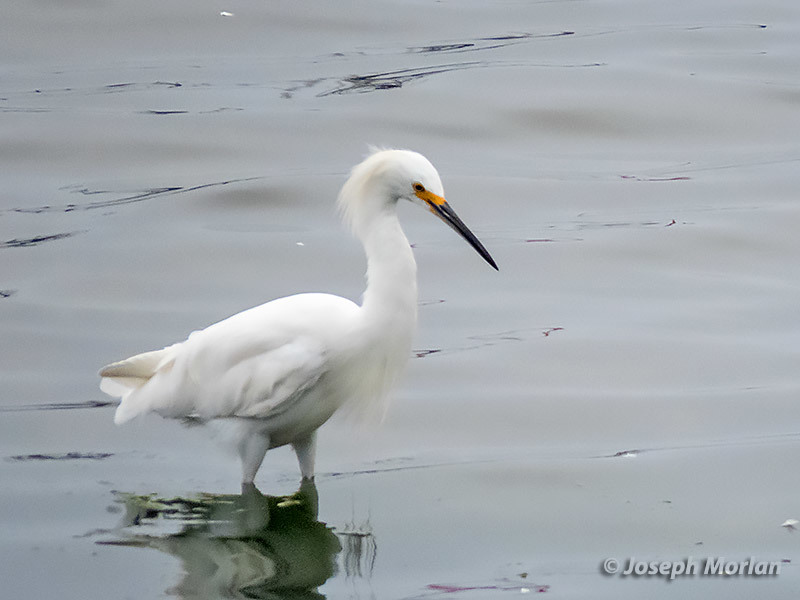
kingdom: Animalia
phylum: Chordata
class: Aves
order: Pelecaniformes
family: Ardeidae
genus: Egretta
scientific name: Egretta thula
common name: Snowy egret
